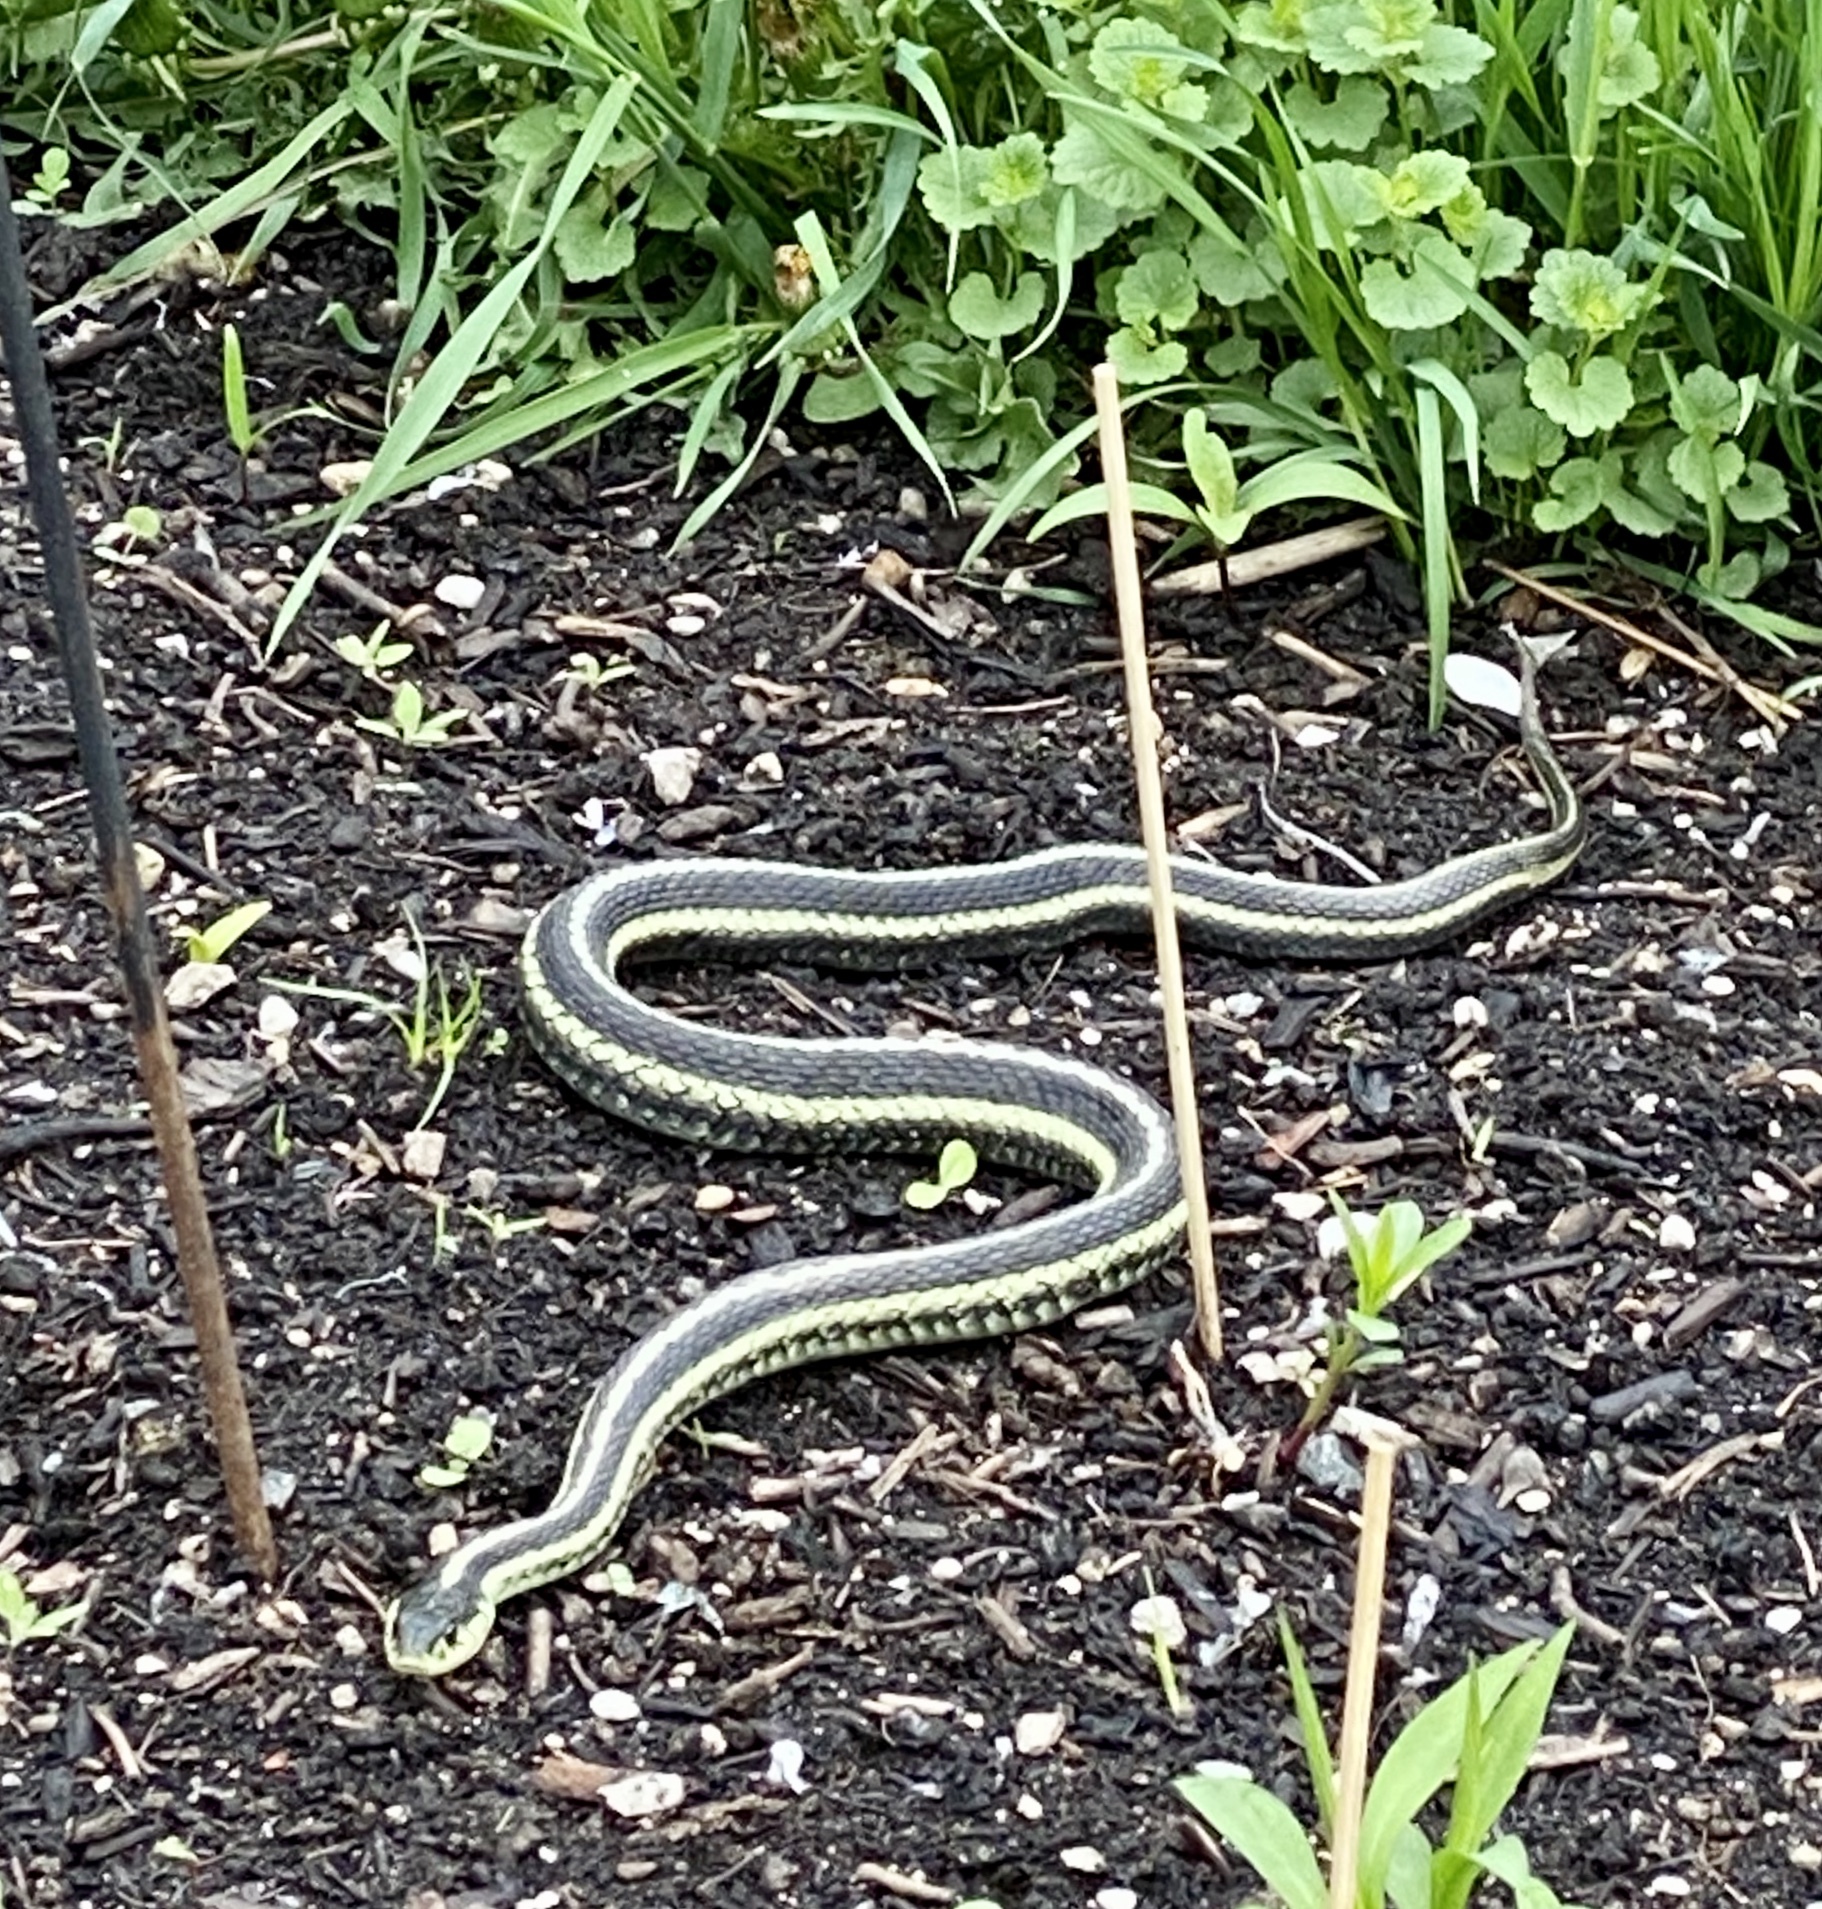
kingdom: Animalia
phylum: Chordata
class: Squamata
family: Colubridae
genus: Thamnophis
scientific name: Thamnophis sirtalis
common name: Common garter snake
